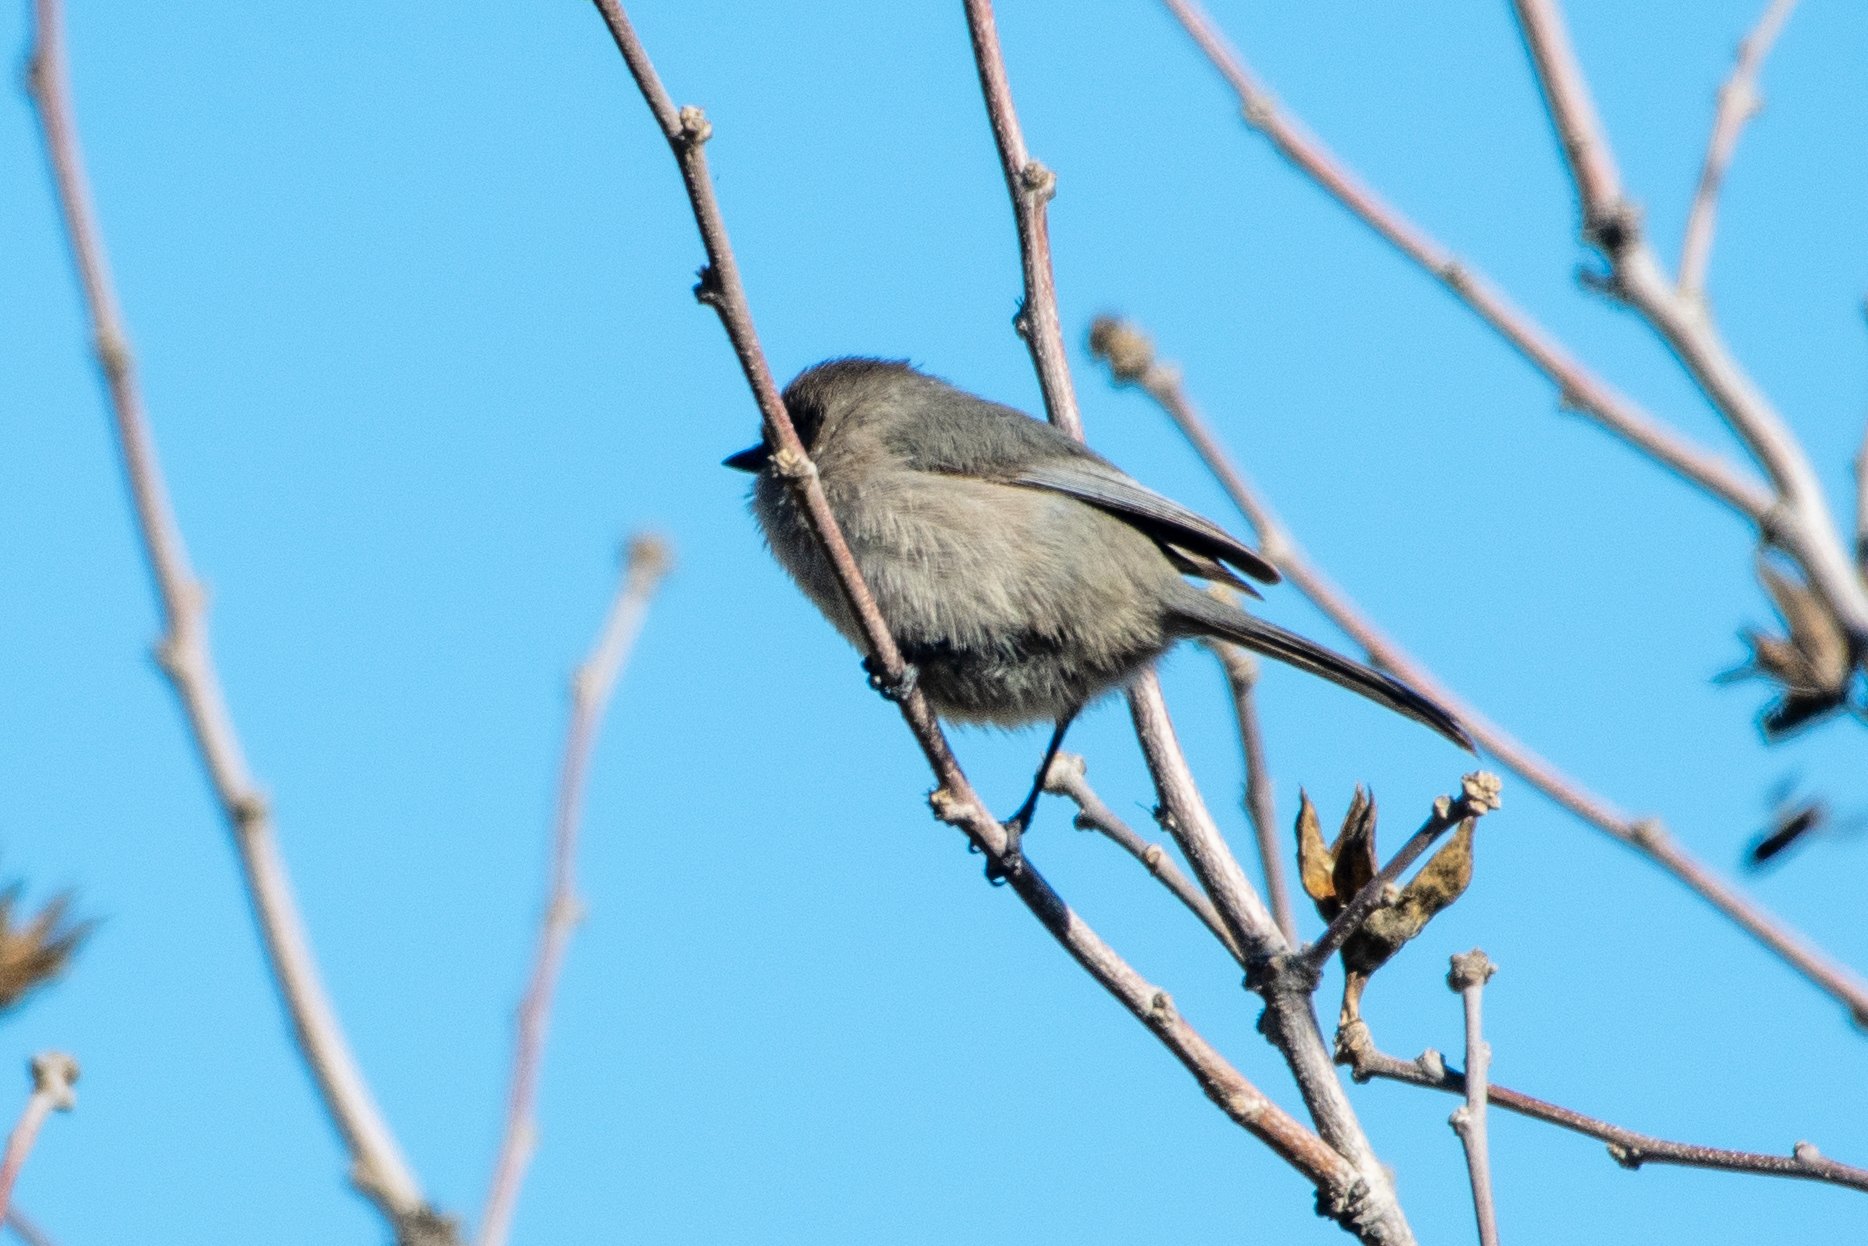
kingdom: Animalia
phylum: Chordata
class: Aves
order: Passeriformes
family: Aegithalidae
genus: Psaltriparus
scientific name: Psaltriparus minimus
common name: American bushtit
